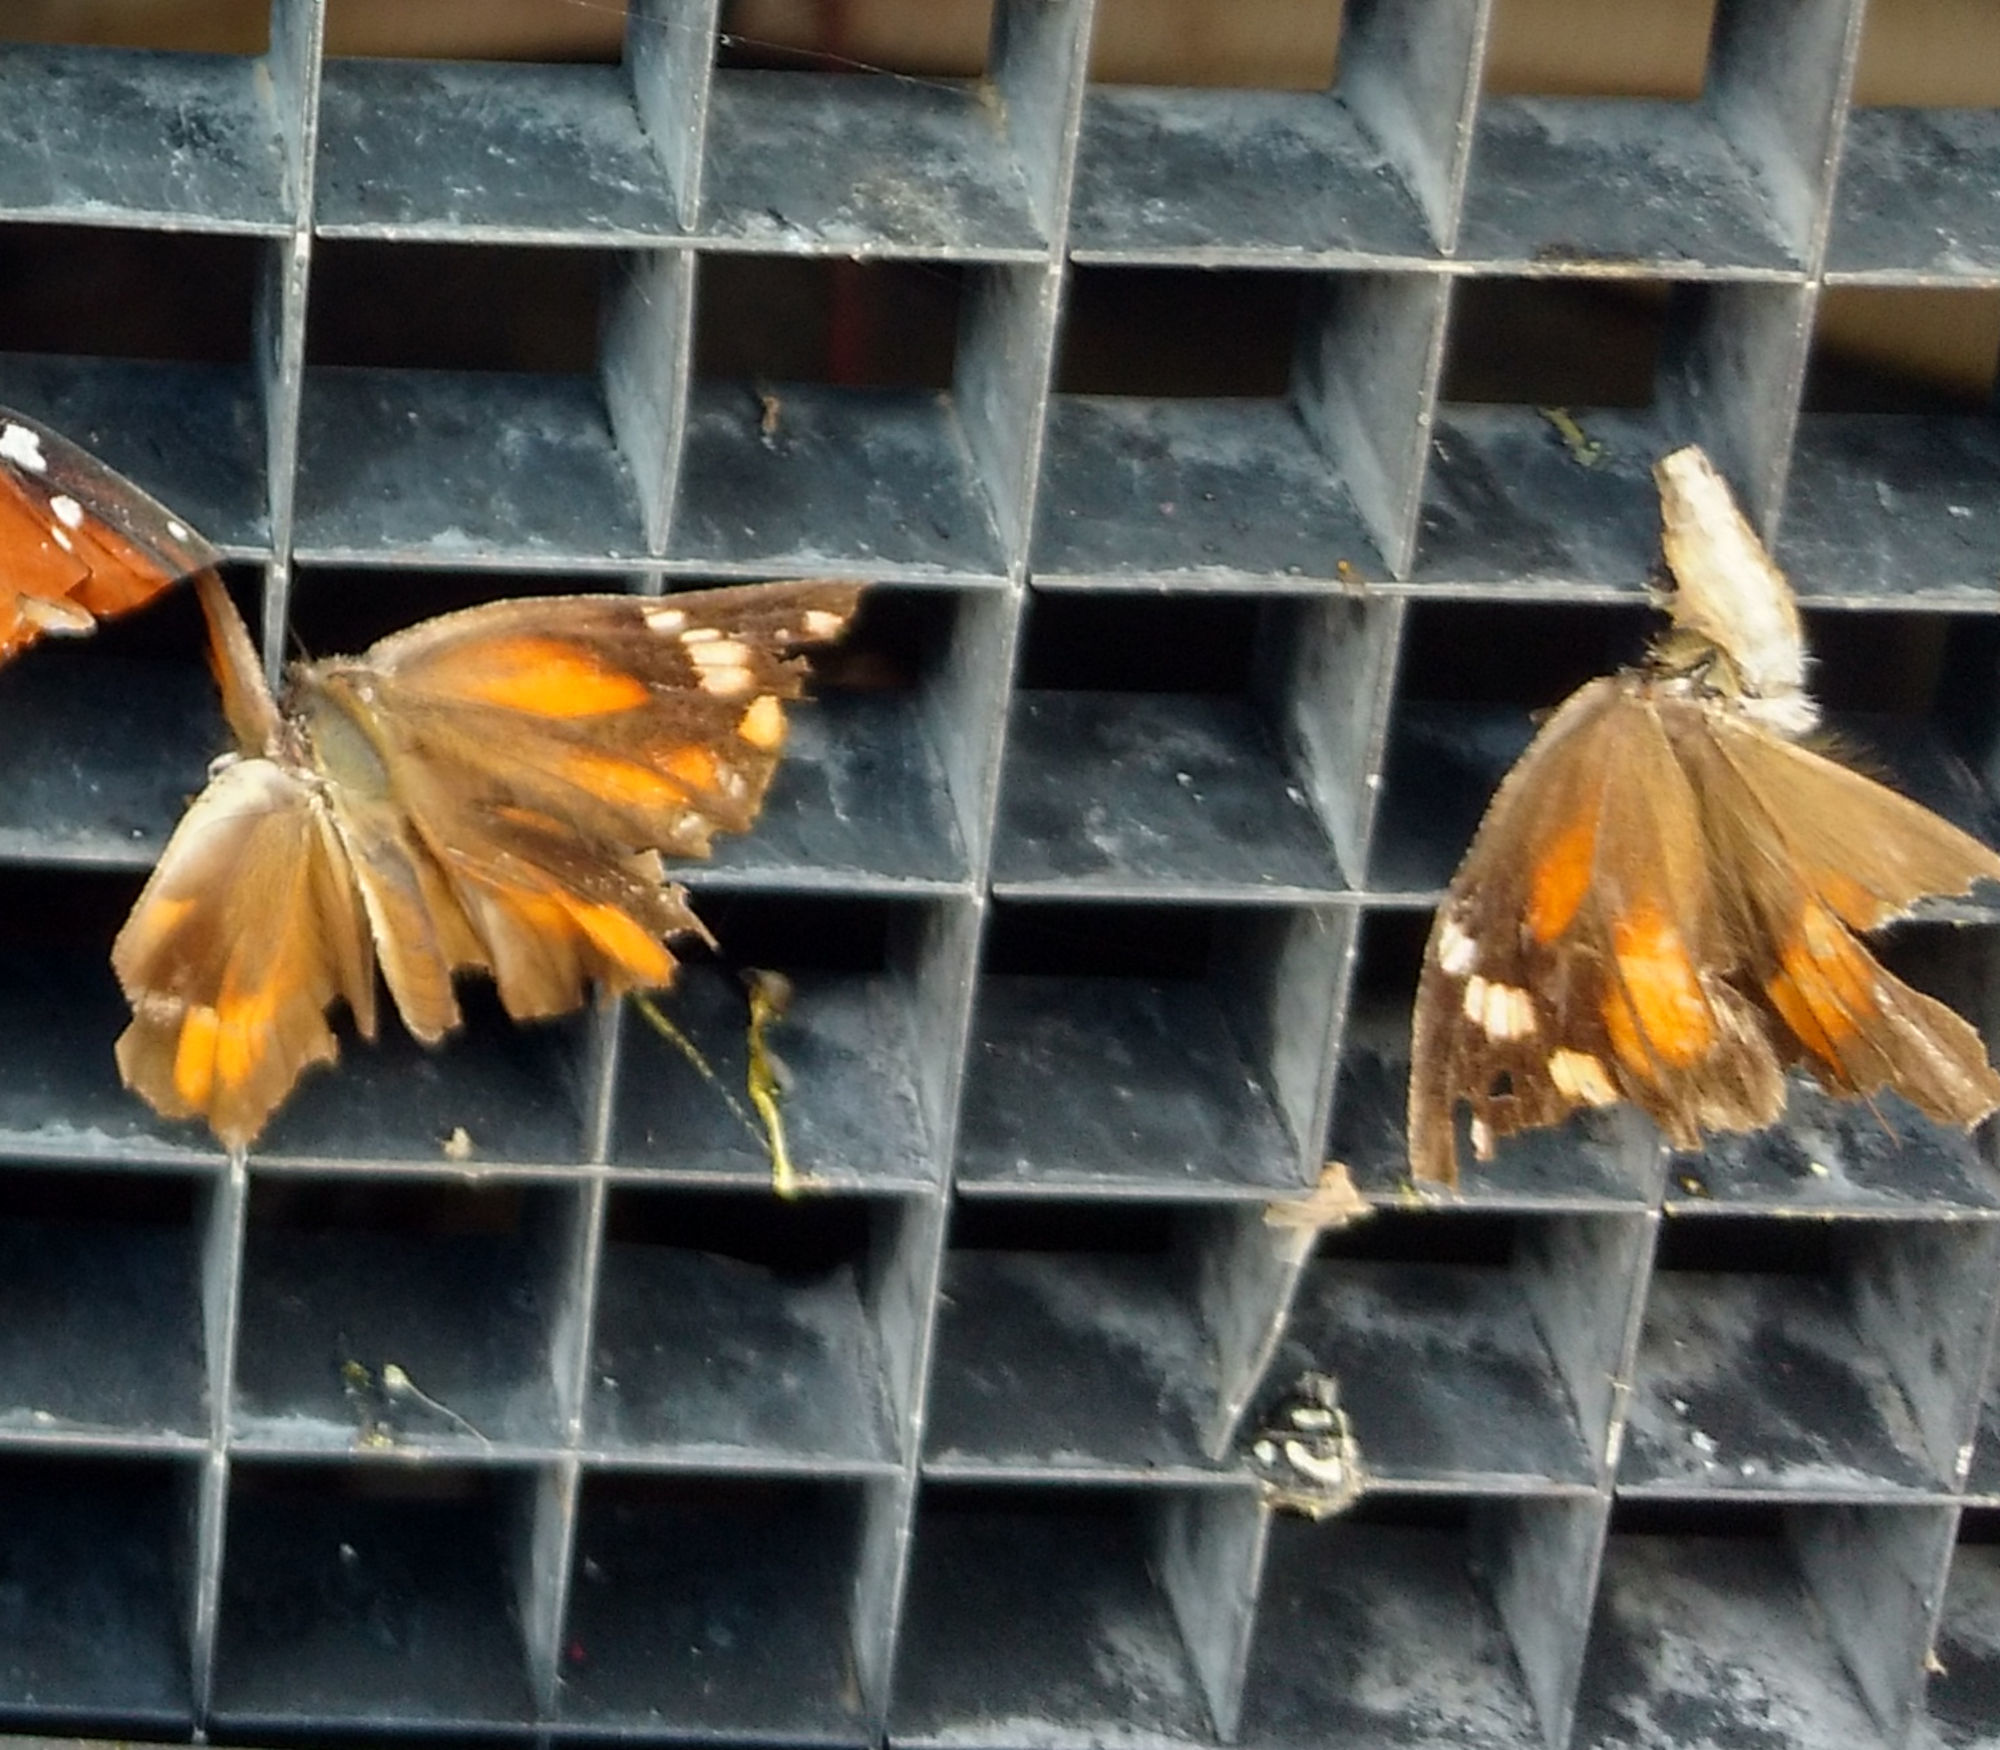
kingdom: Animalia
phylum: Arthropoda
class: Insecta
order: Lepidoptera
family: Nymphalidae
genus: Libytheana
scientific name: Libytheana carinenta
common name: American snout
